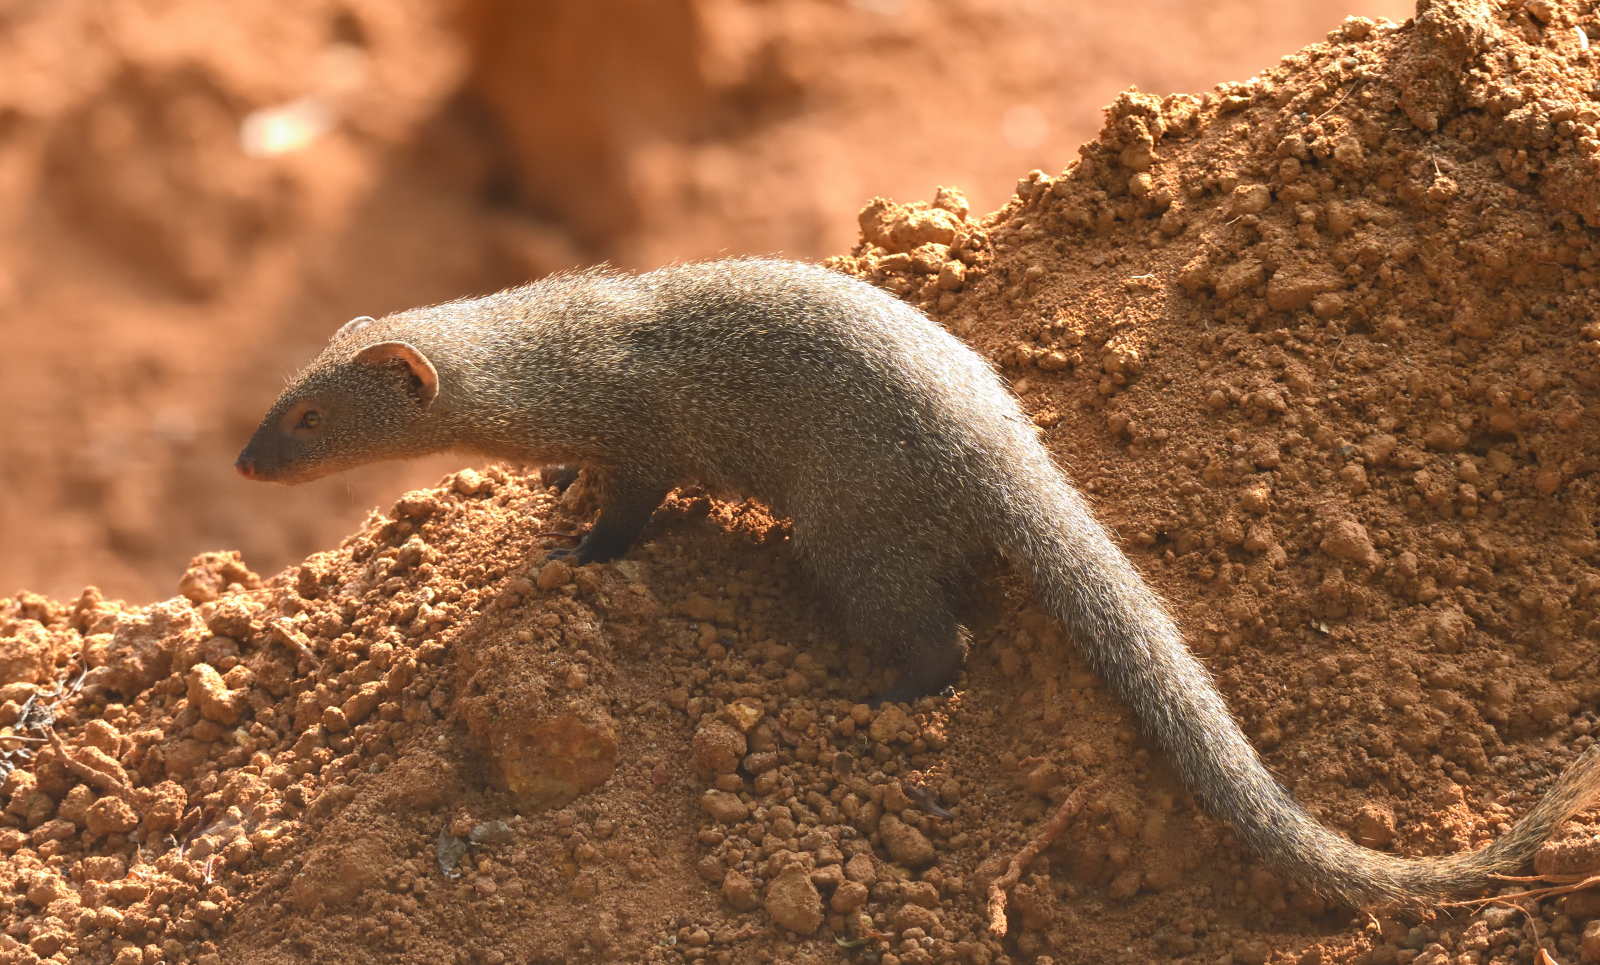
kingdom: Animalia
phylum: Chordata
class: Mammalia
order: Carnivora
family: Herpestidae
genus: Herpestes
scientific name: Herpestes edwardsi
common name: Indian gray mongoose
